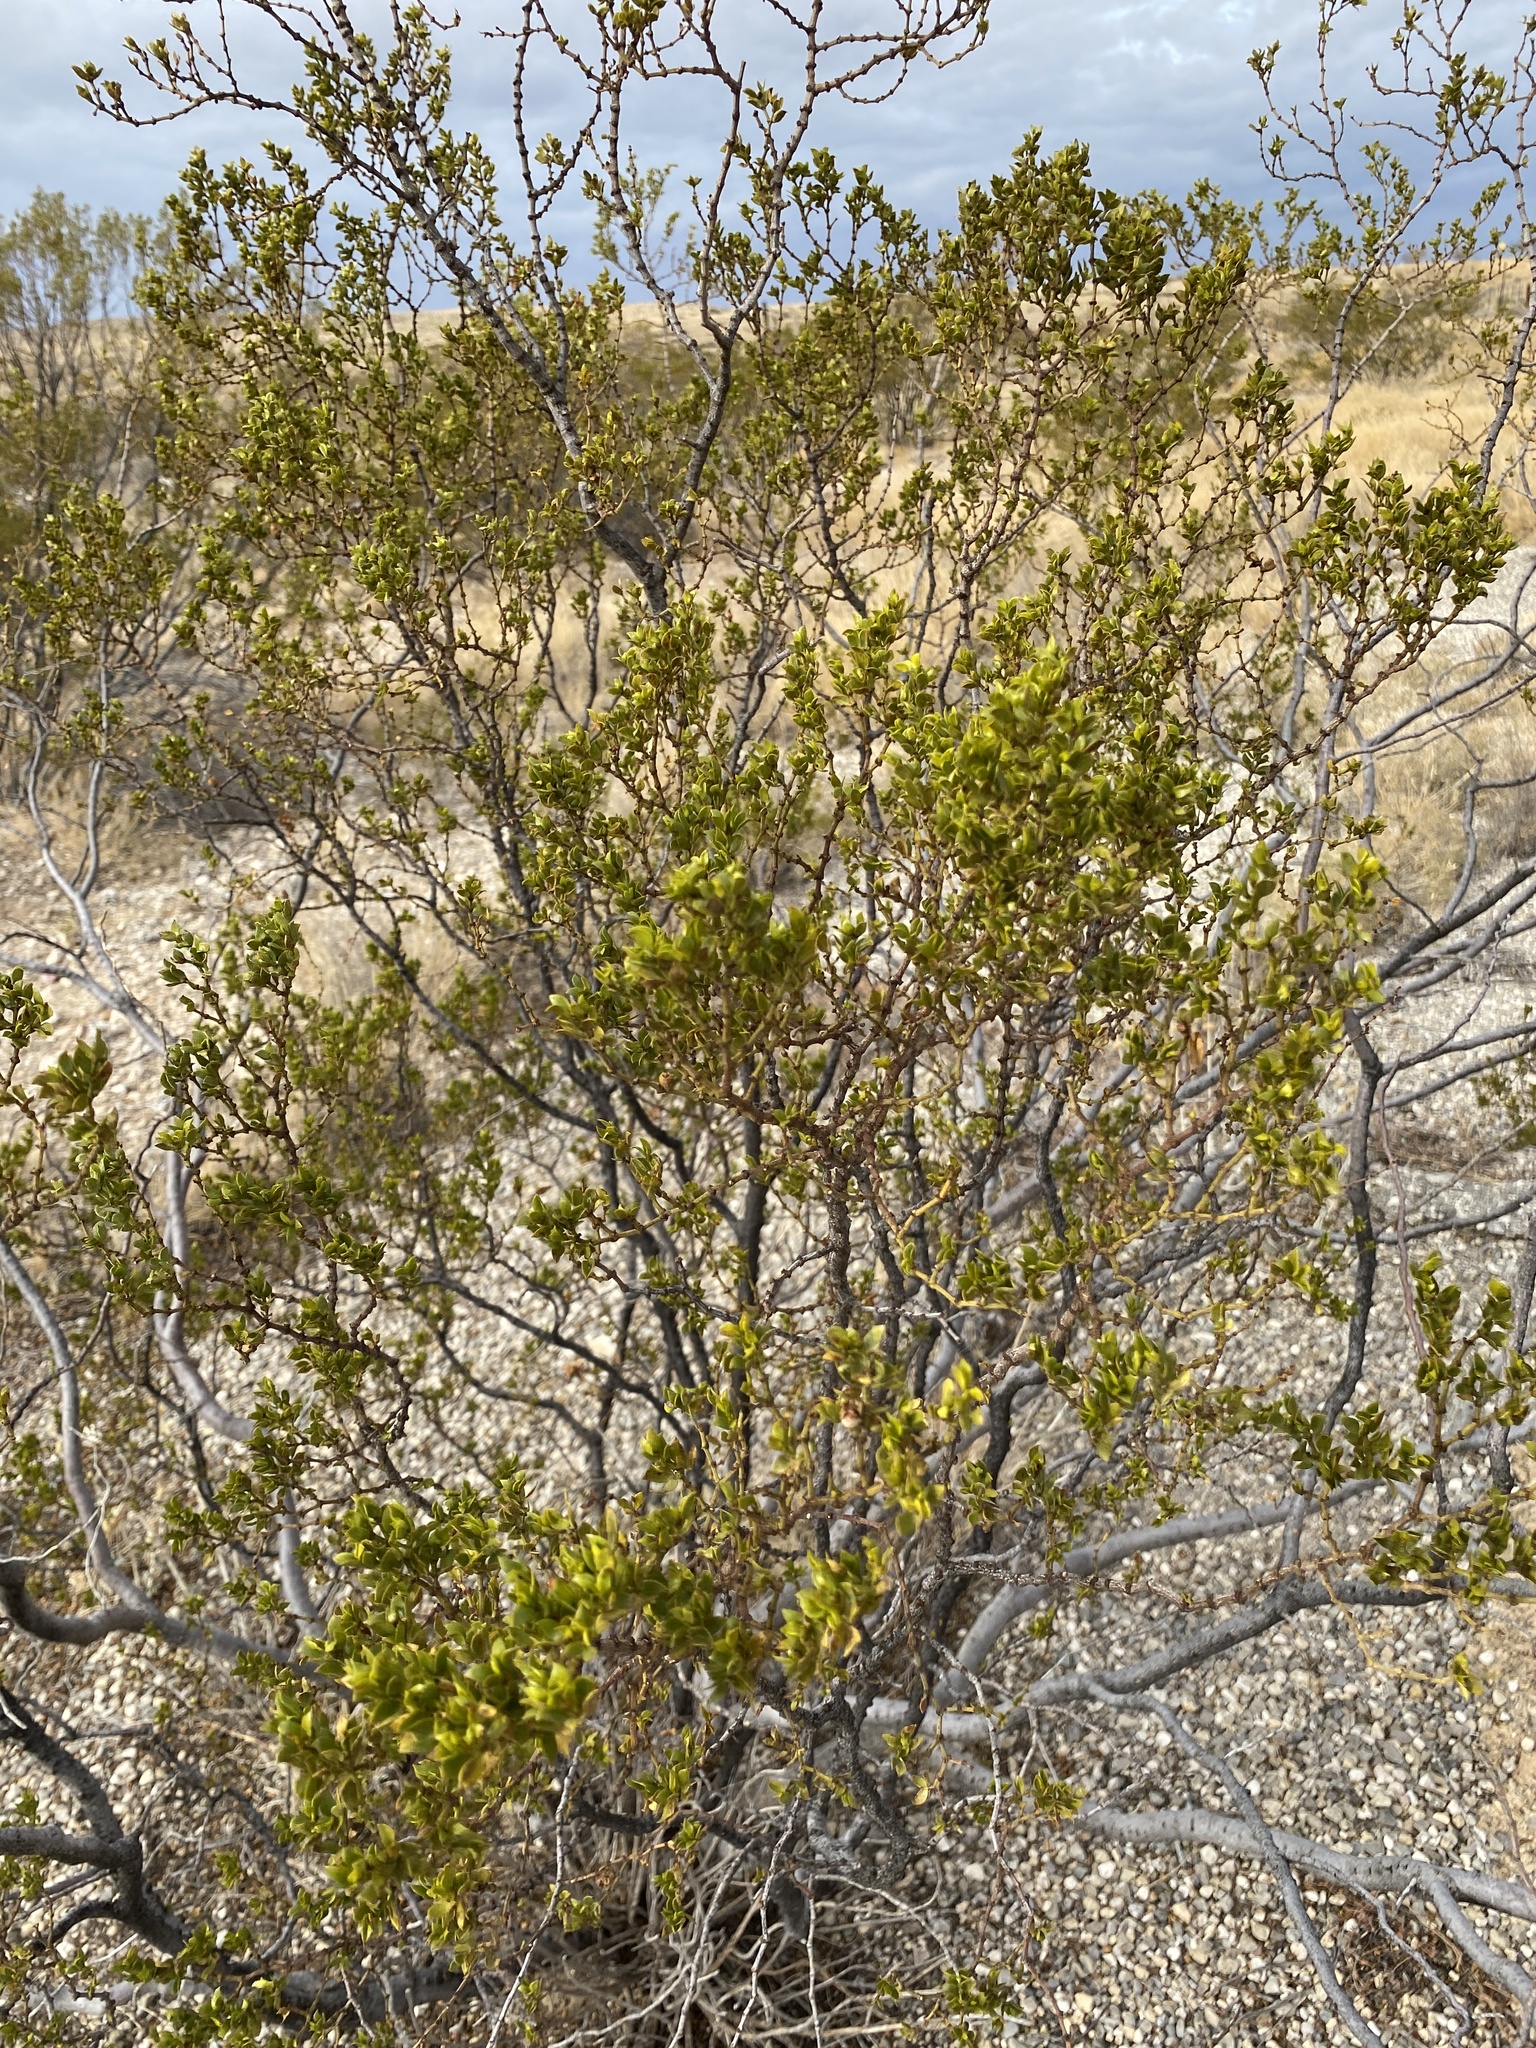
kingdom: Plantae
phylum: Tracheophyta
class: Magnoliopsida
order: Zygophyllales
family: Zygophyllaceae
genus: Larrea
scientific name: Larrea tridentata
